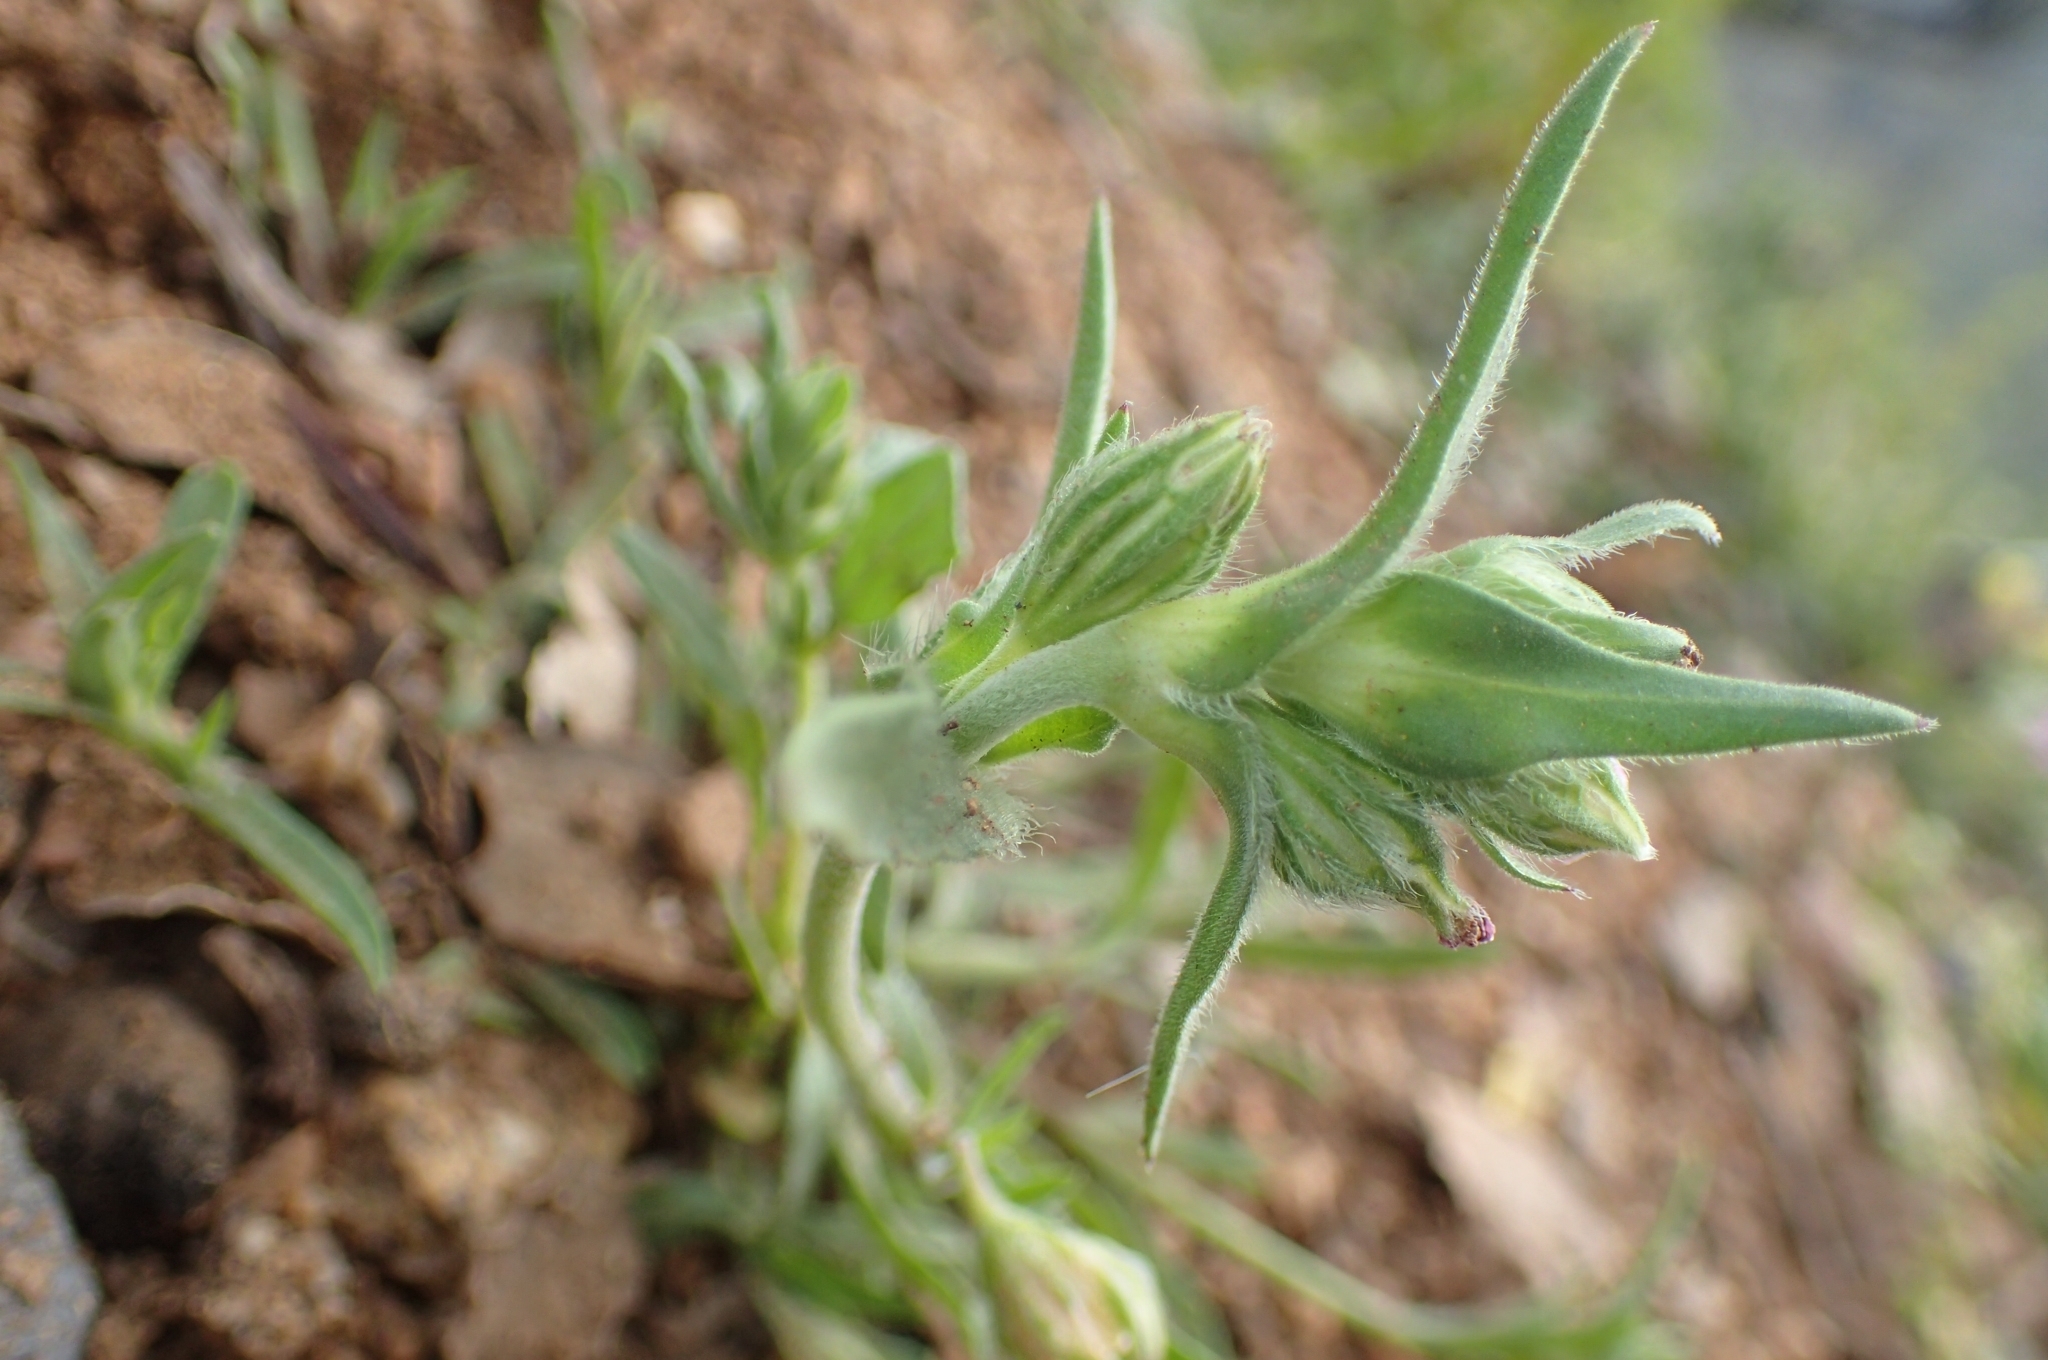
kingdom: Plantae
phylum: Tracheophyta
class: Magnoliopsida
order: Caryophyllales
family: Caryophyllaceae
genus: Silene
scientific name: Silene apetala
